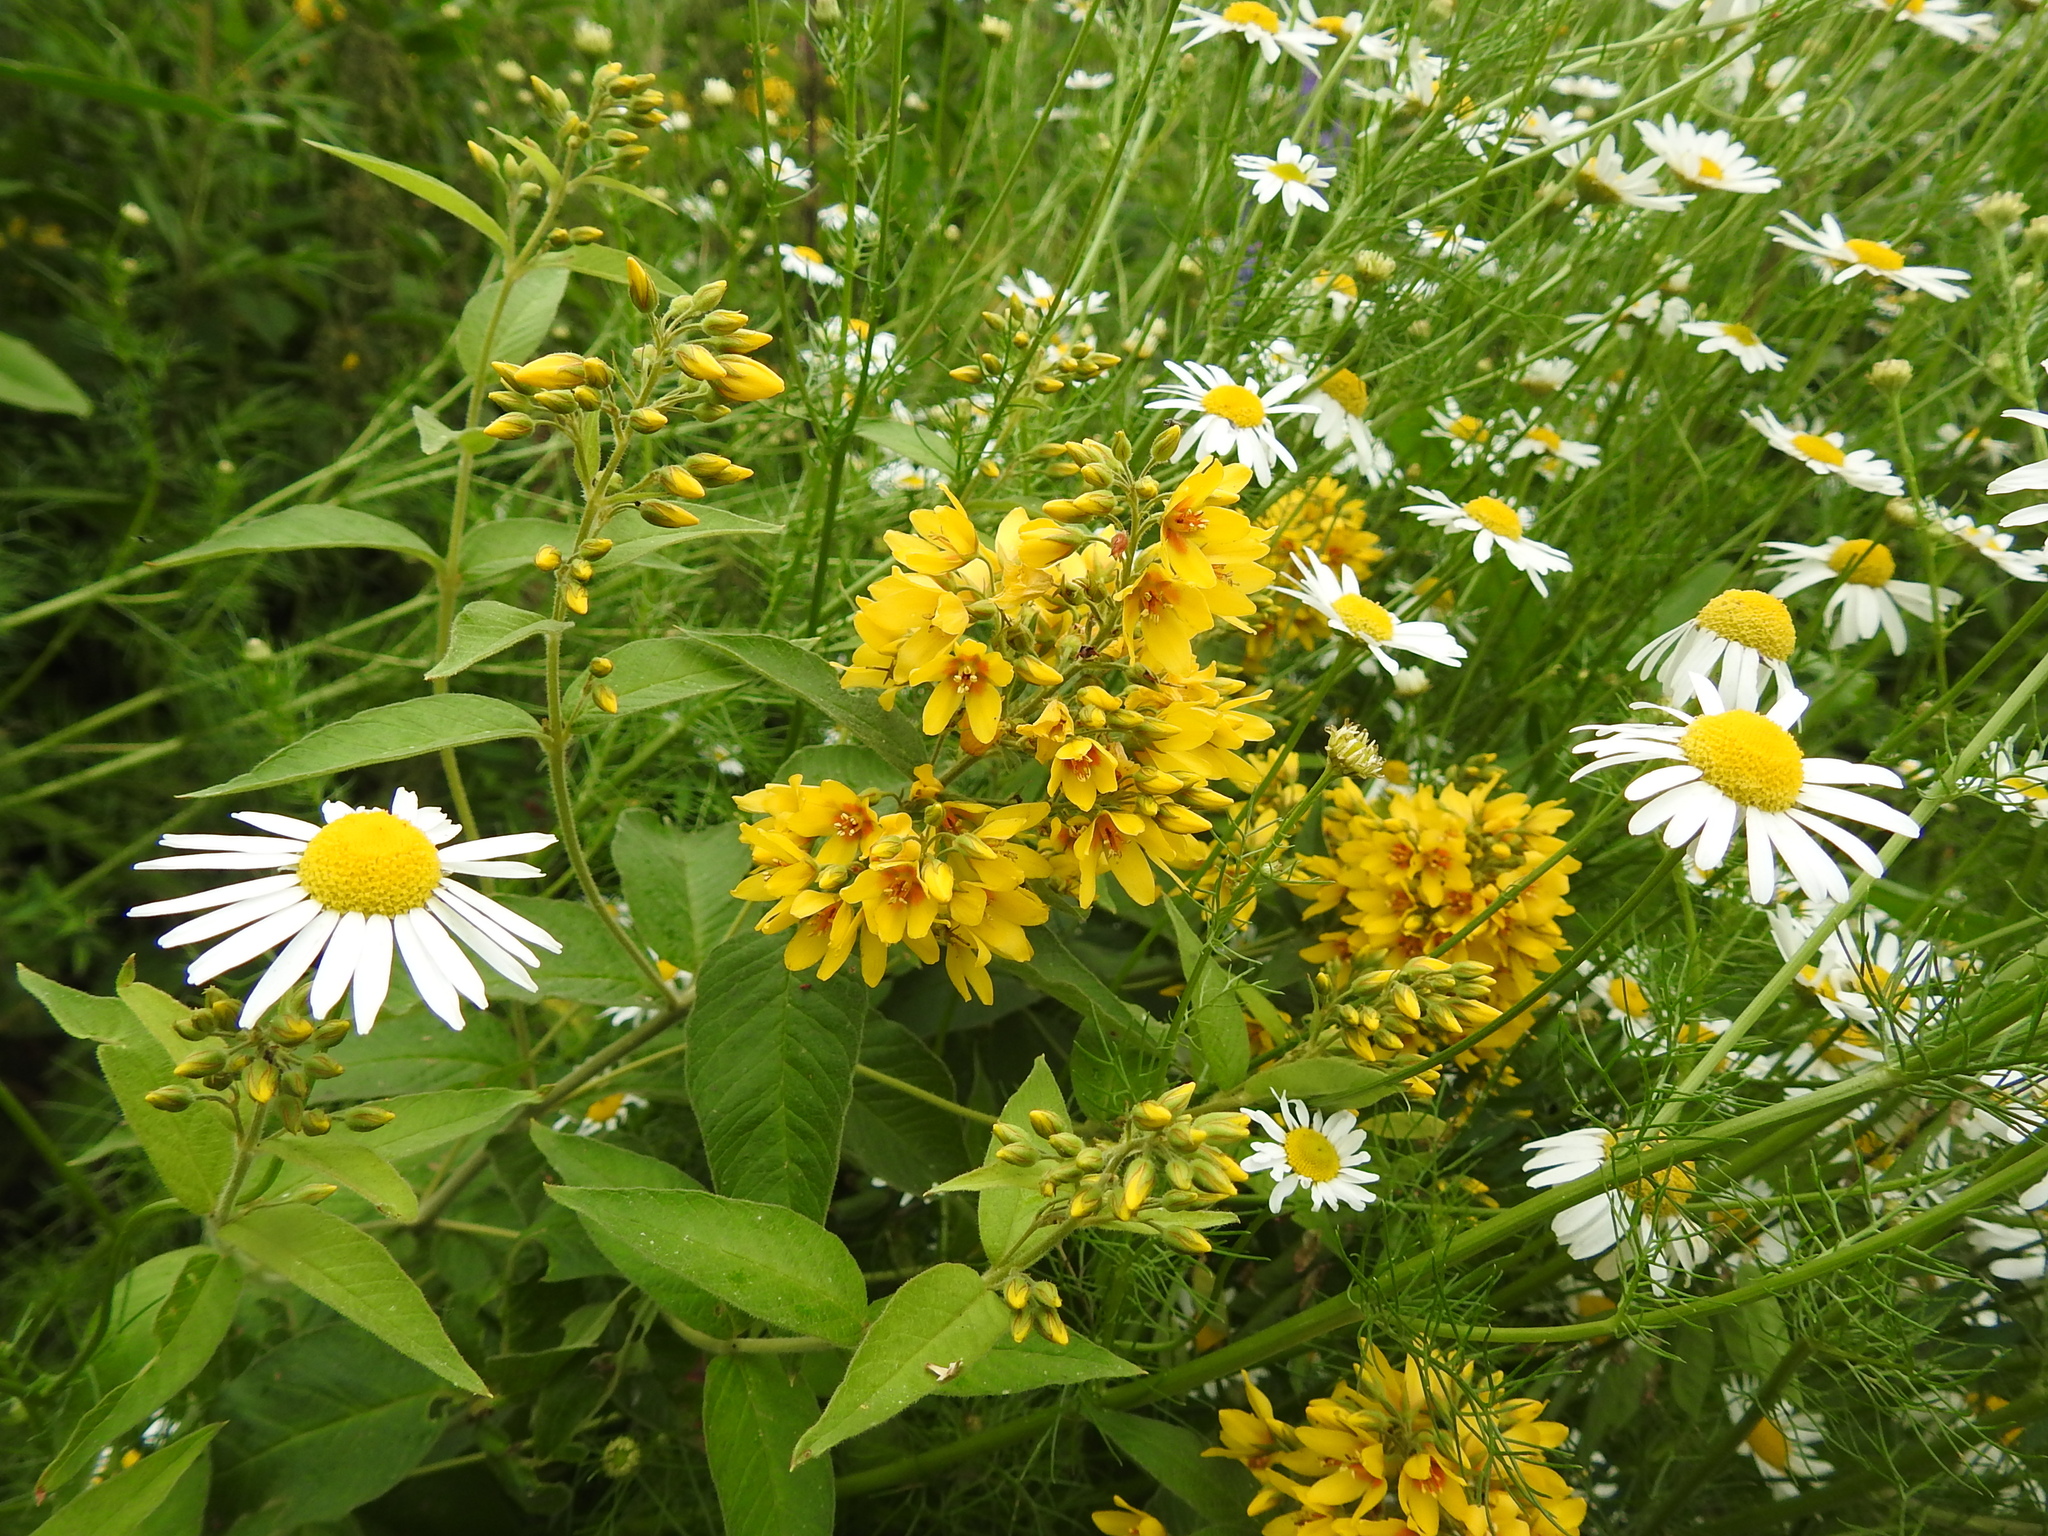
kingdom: Plantae
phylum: Tracheophyta
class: Magnoliopsida
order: Ericales
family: Primulaceae
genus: Lysimachia
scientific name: Lysimachia vulgaris
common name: Yellow loosestrife
